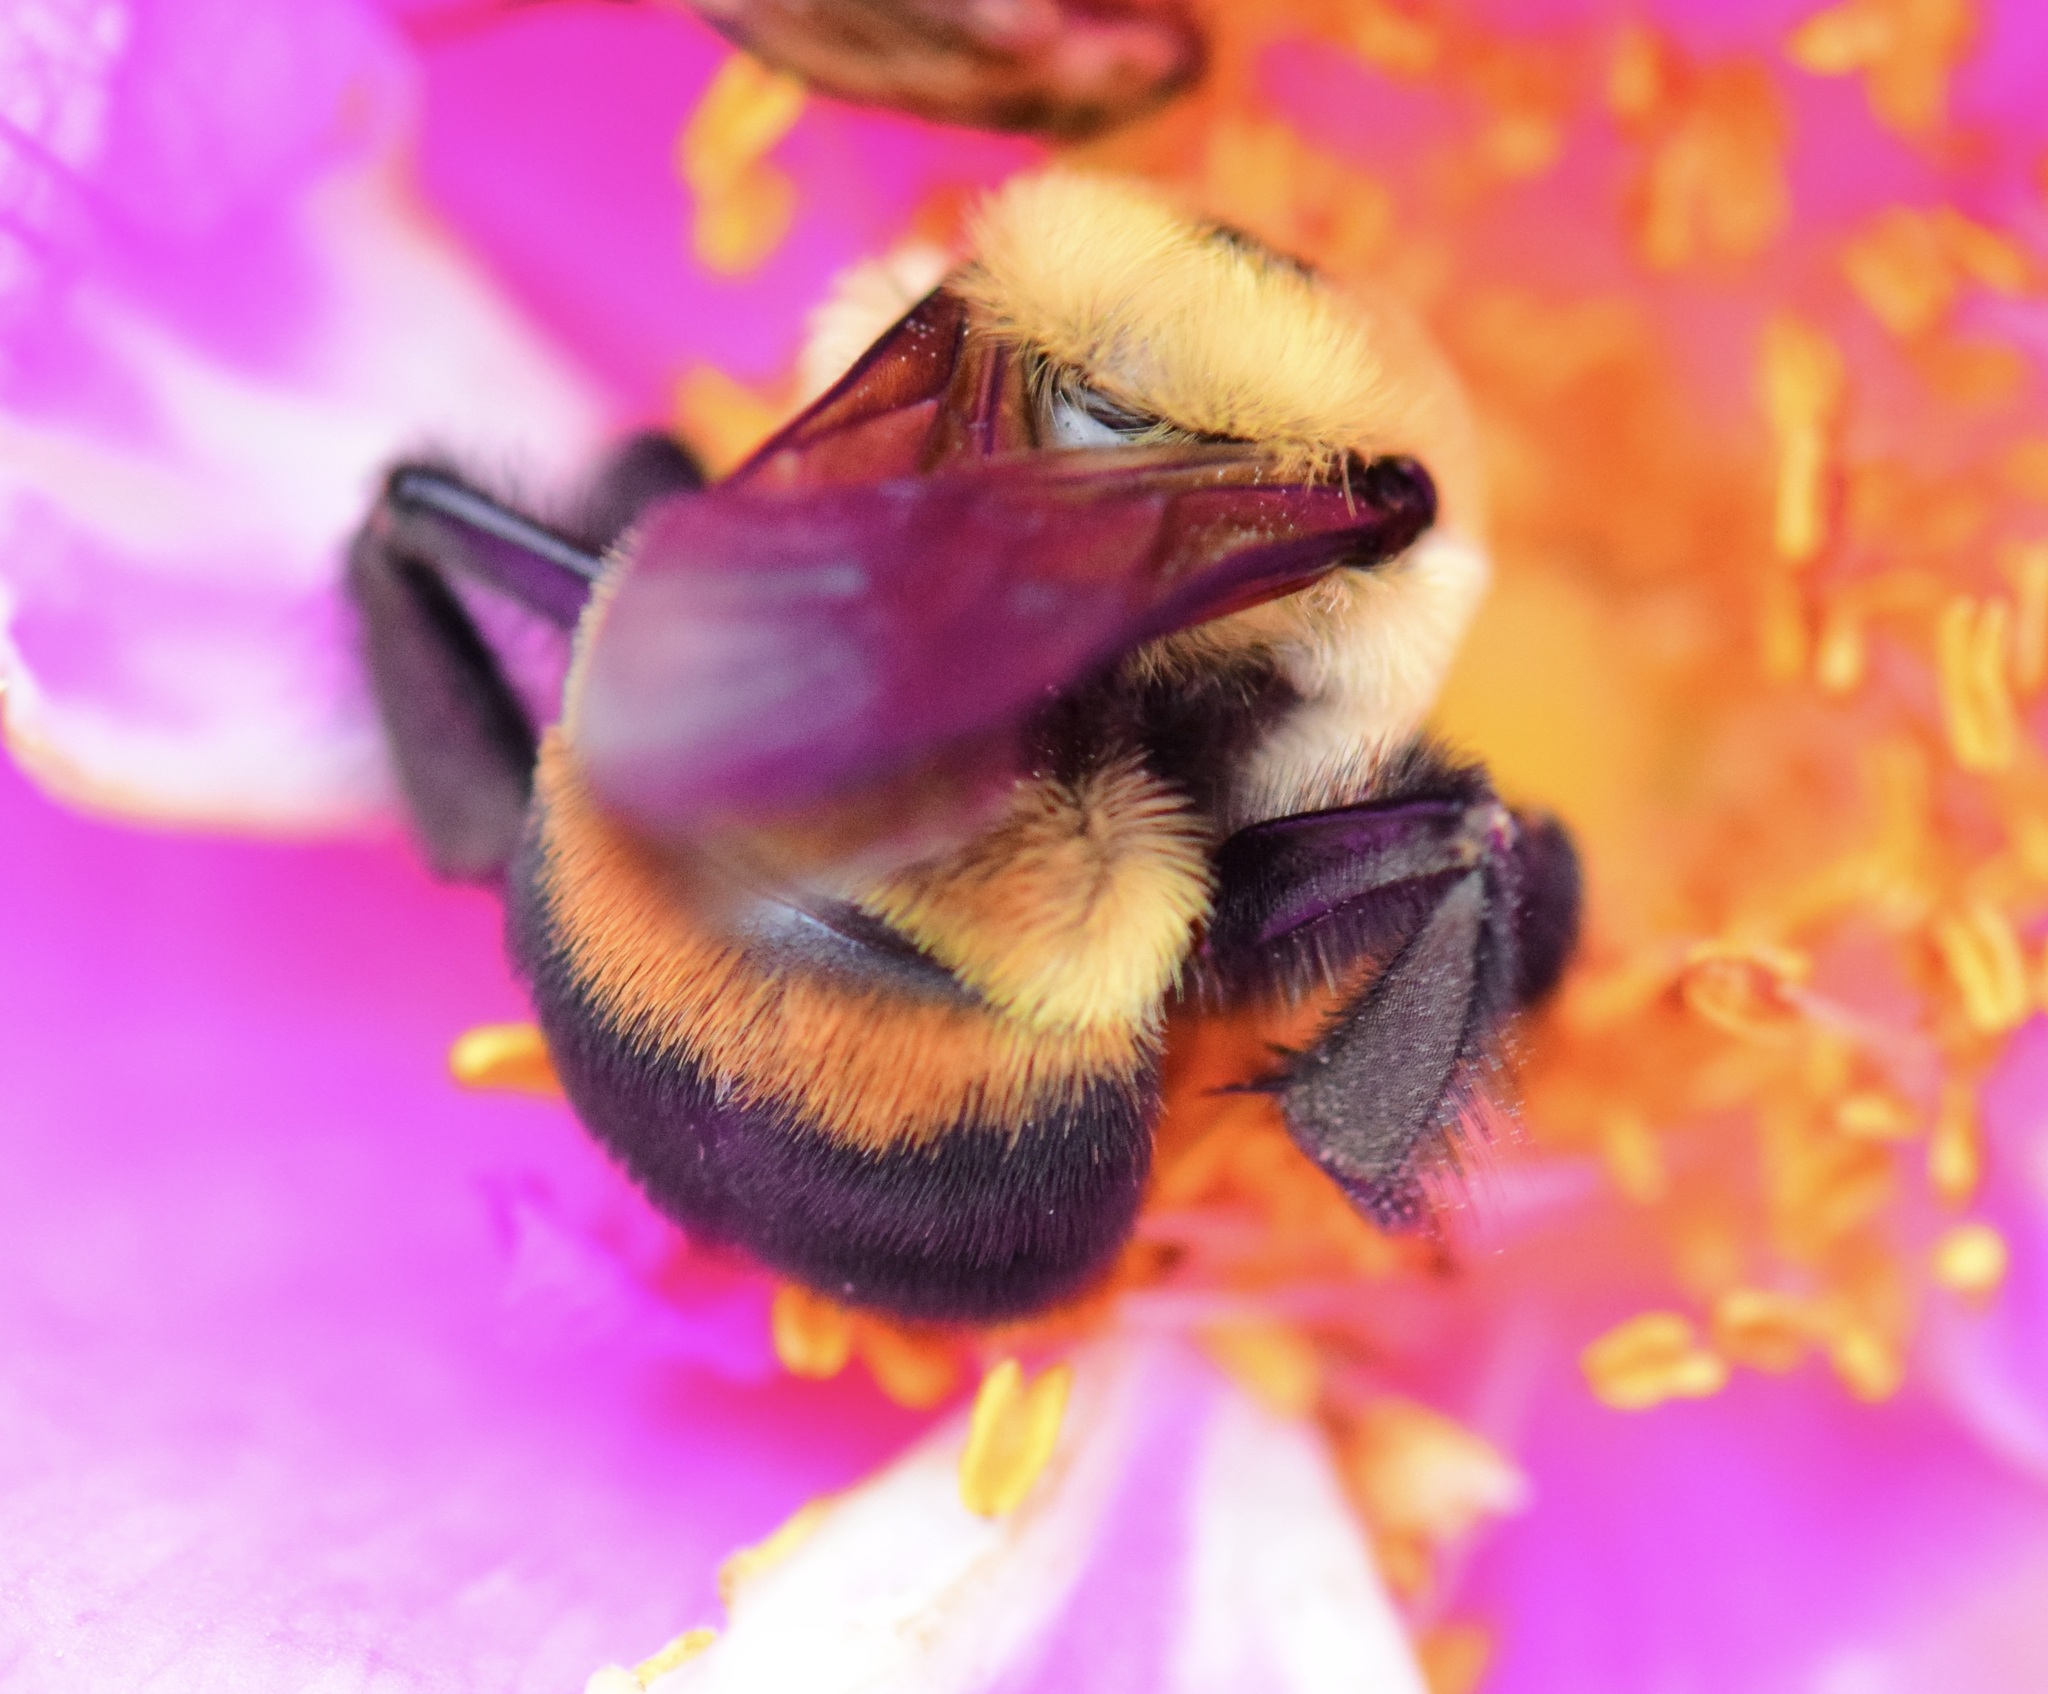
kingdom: Animalia
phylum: Arthropoda
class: Insecta
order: Hymenoptera
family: Apidae
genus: Bombus
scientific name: Bombus griseocollis
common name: Brown-belted bumble bee
